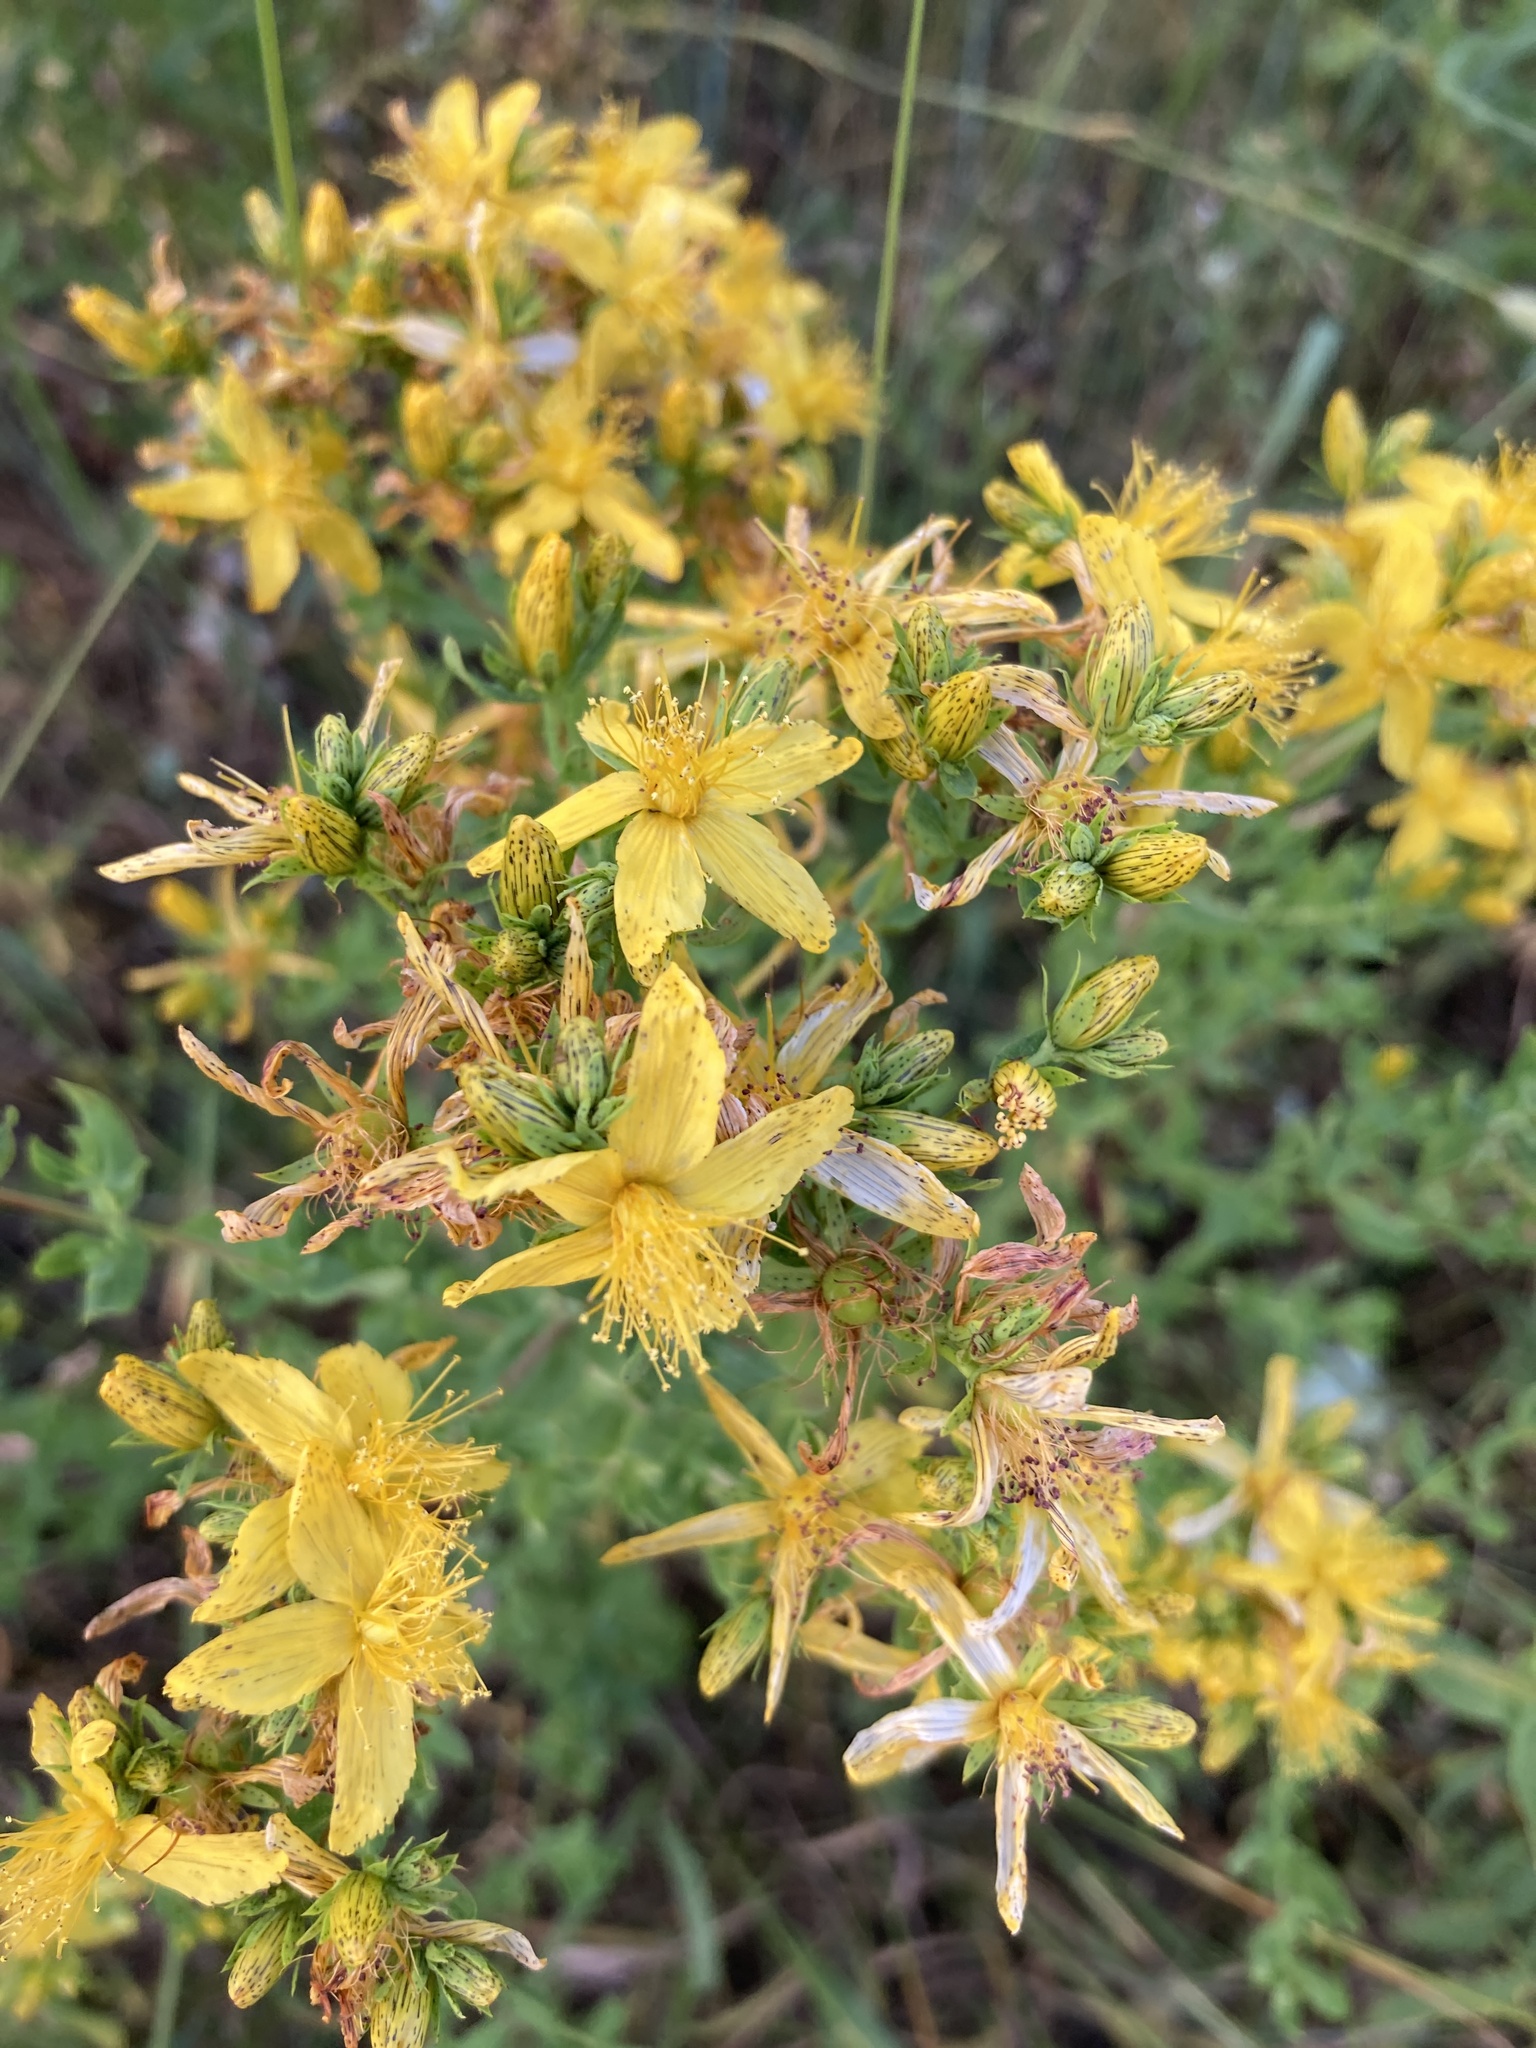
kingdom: Plantae
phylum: Tracheophyta
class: Magnoliopsida
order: Malpighiales
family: Hypericaceae
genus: Hypericum
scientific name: Hypericum perforatum
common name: Common st. johnswort
